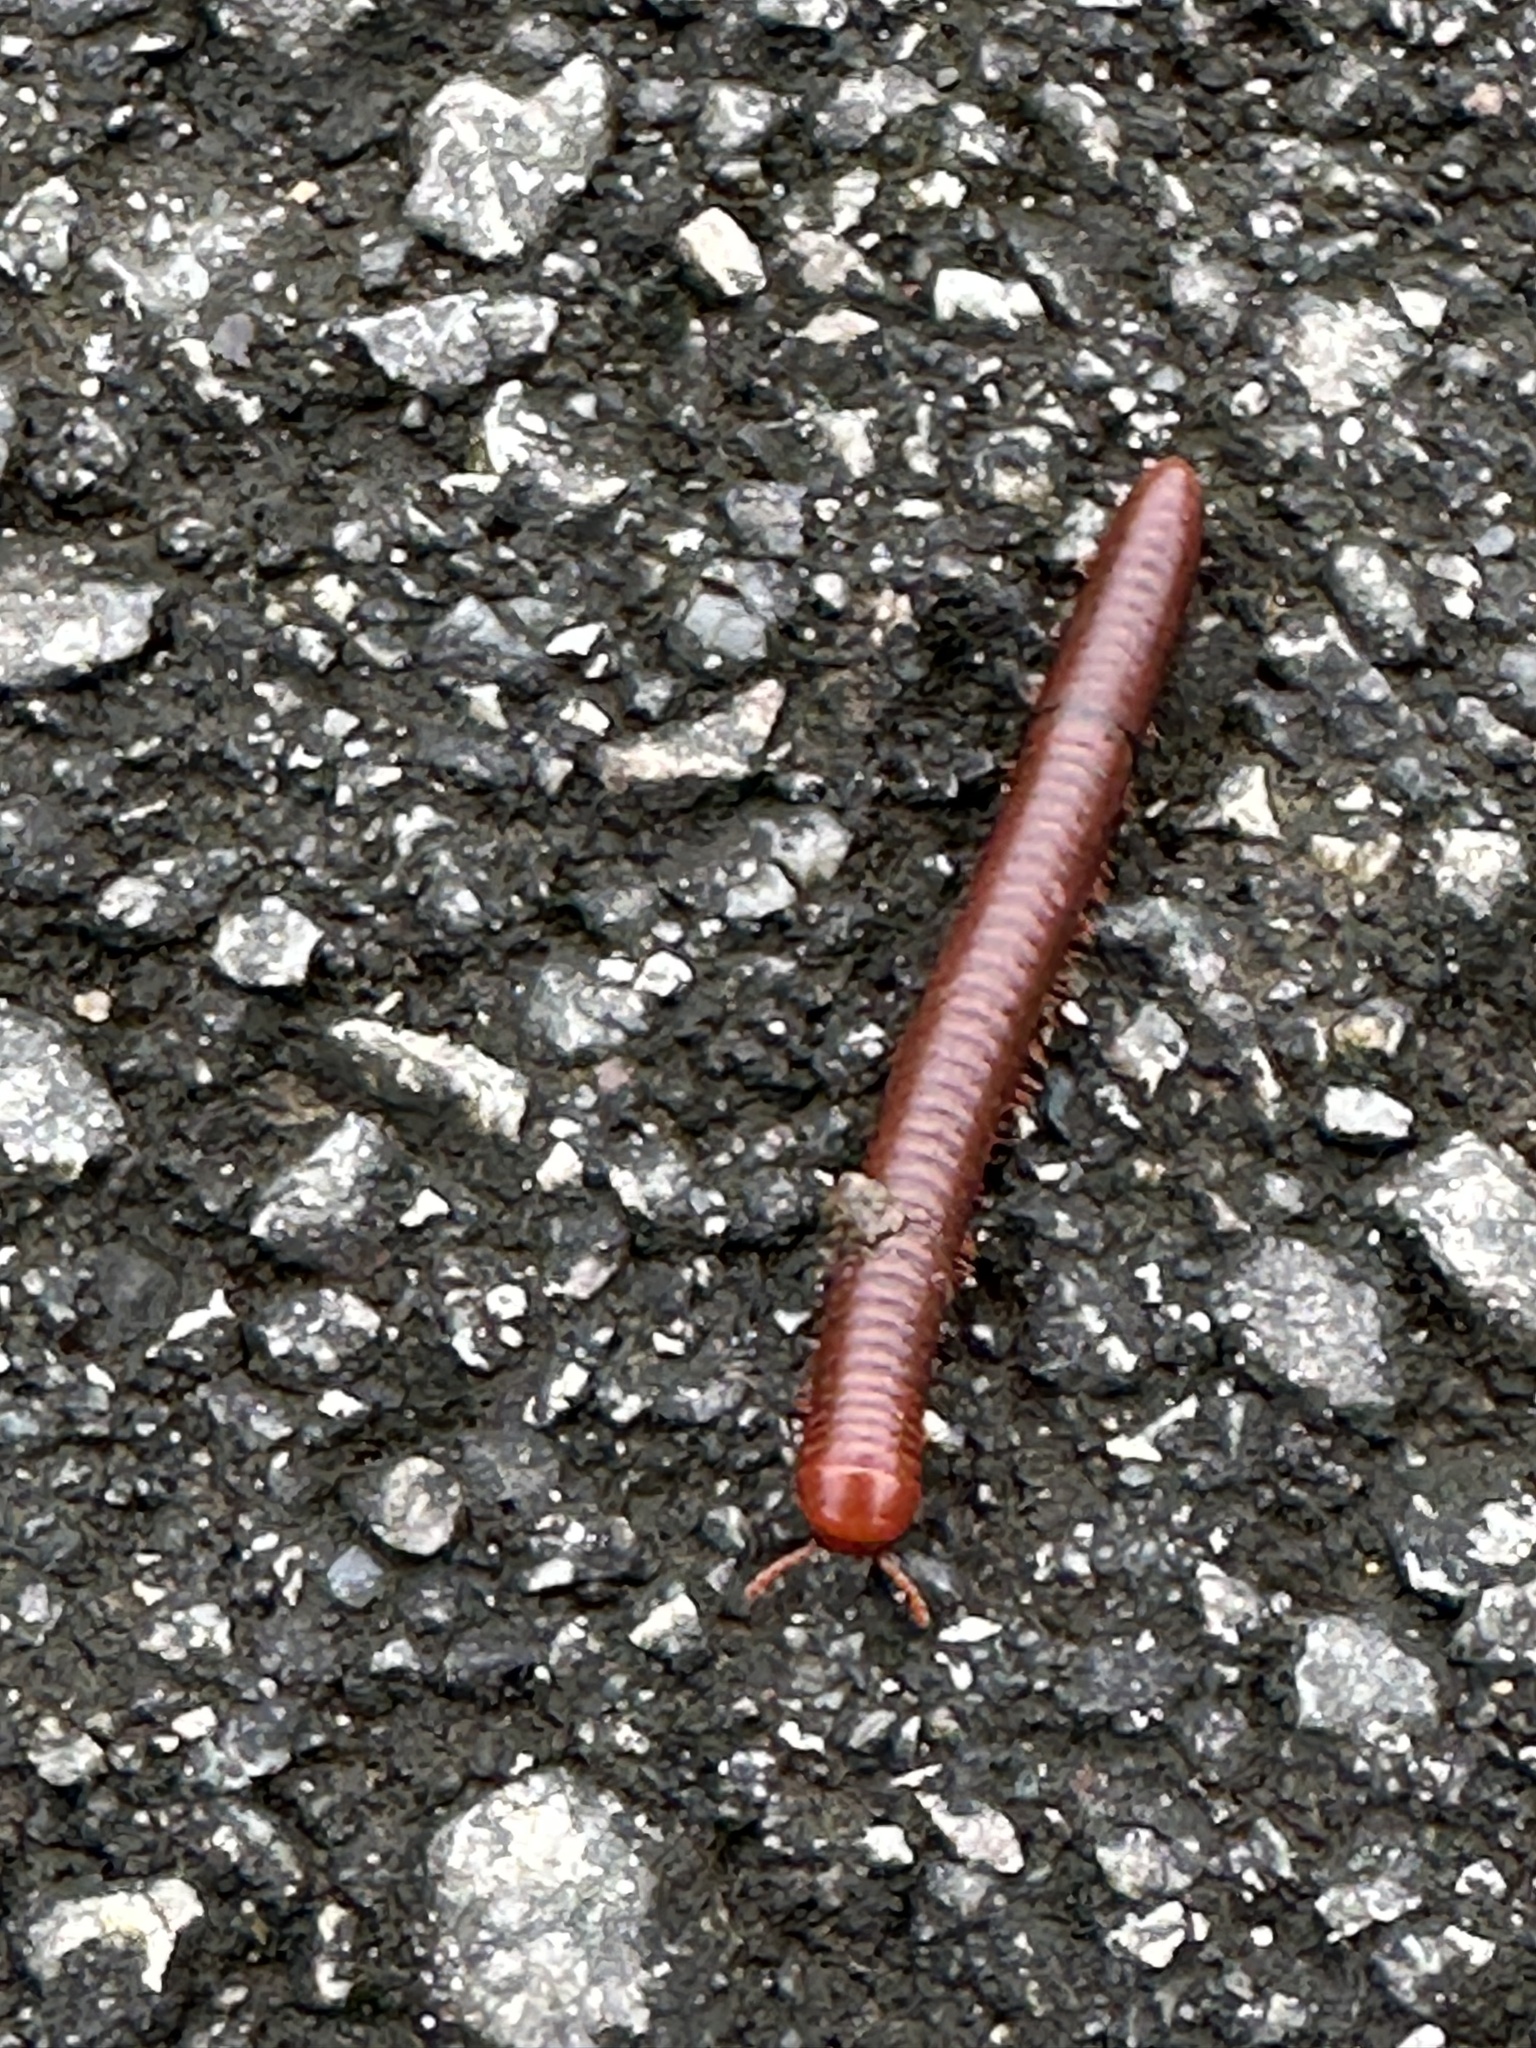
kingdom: Animalia
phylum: Arthropoda
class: Diplopoda
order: Spirobolida
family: Pachybolidae
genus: Trigoniulus
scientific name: Trigoniulus corallinus
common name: Millipede
